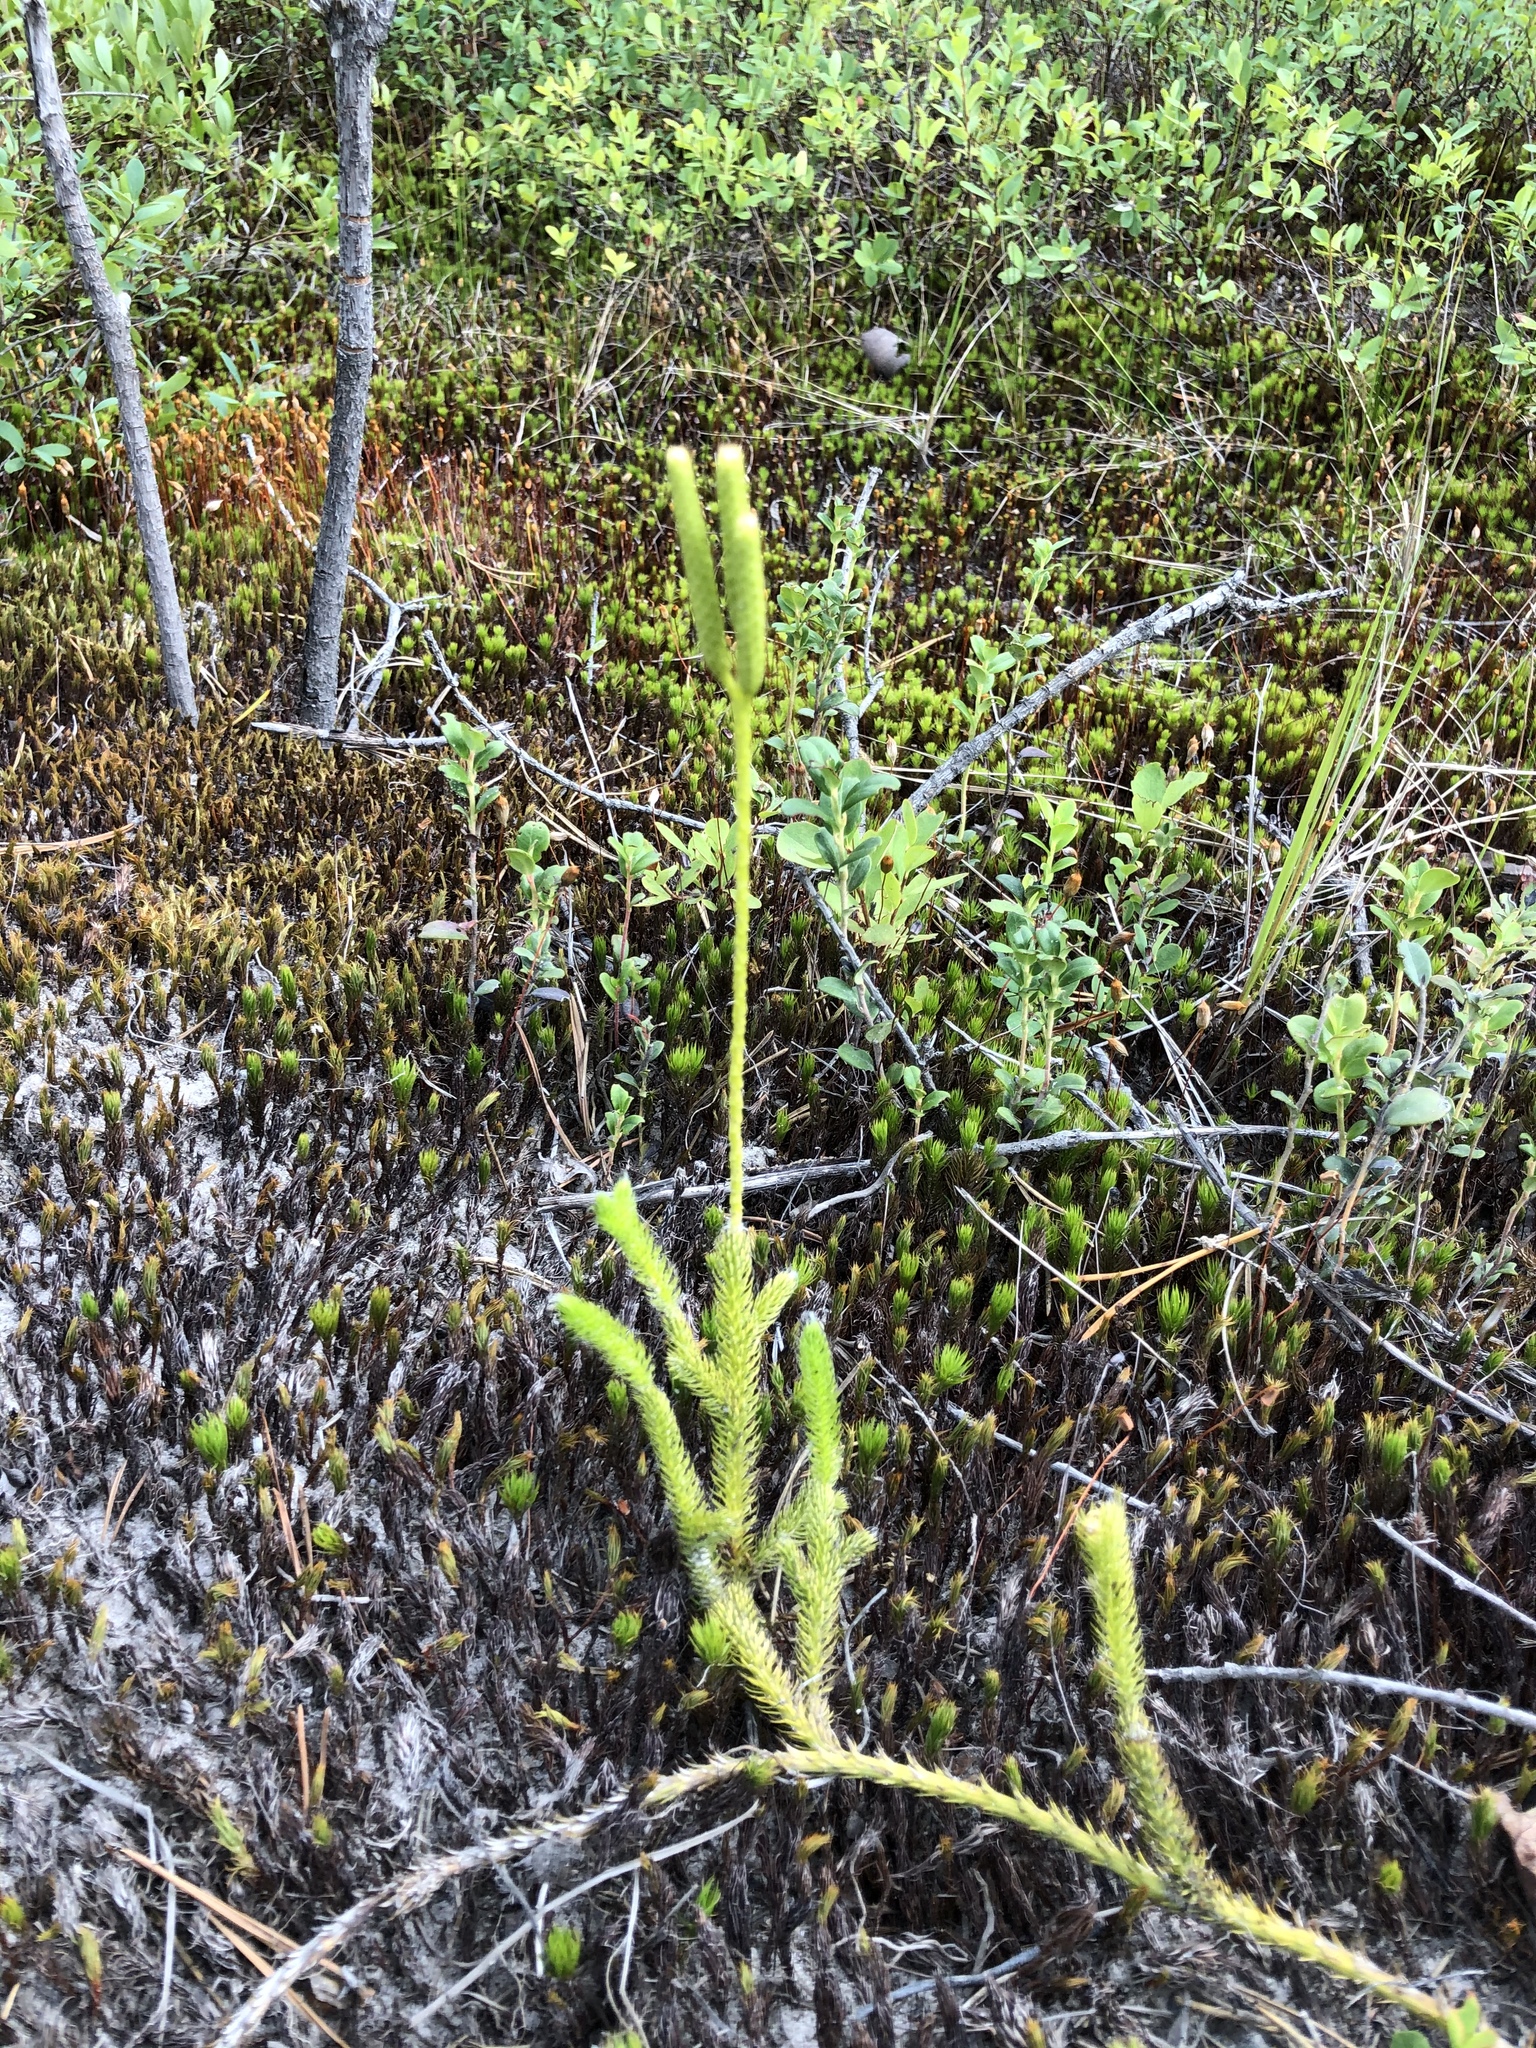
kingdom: Plantae
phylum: Tracheophyta
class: Lycopodiopsida
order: Lycopodiales
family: Lycopodiaceae
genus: Lycopodium
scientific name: Lycopodium clavatum
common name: Stag's-horn clubmoss
